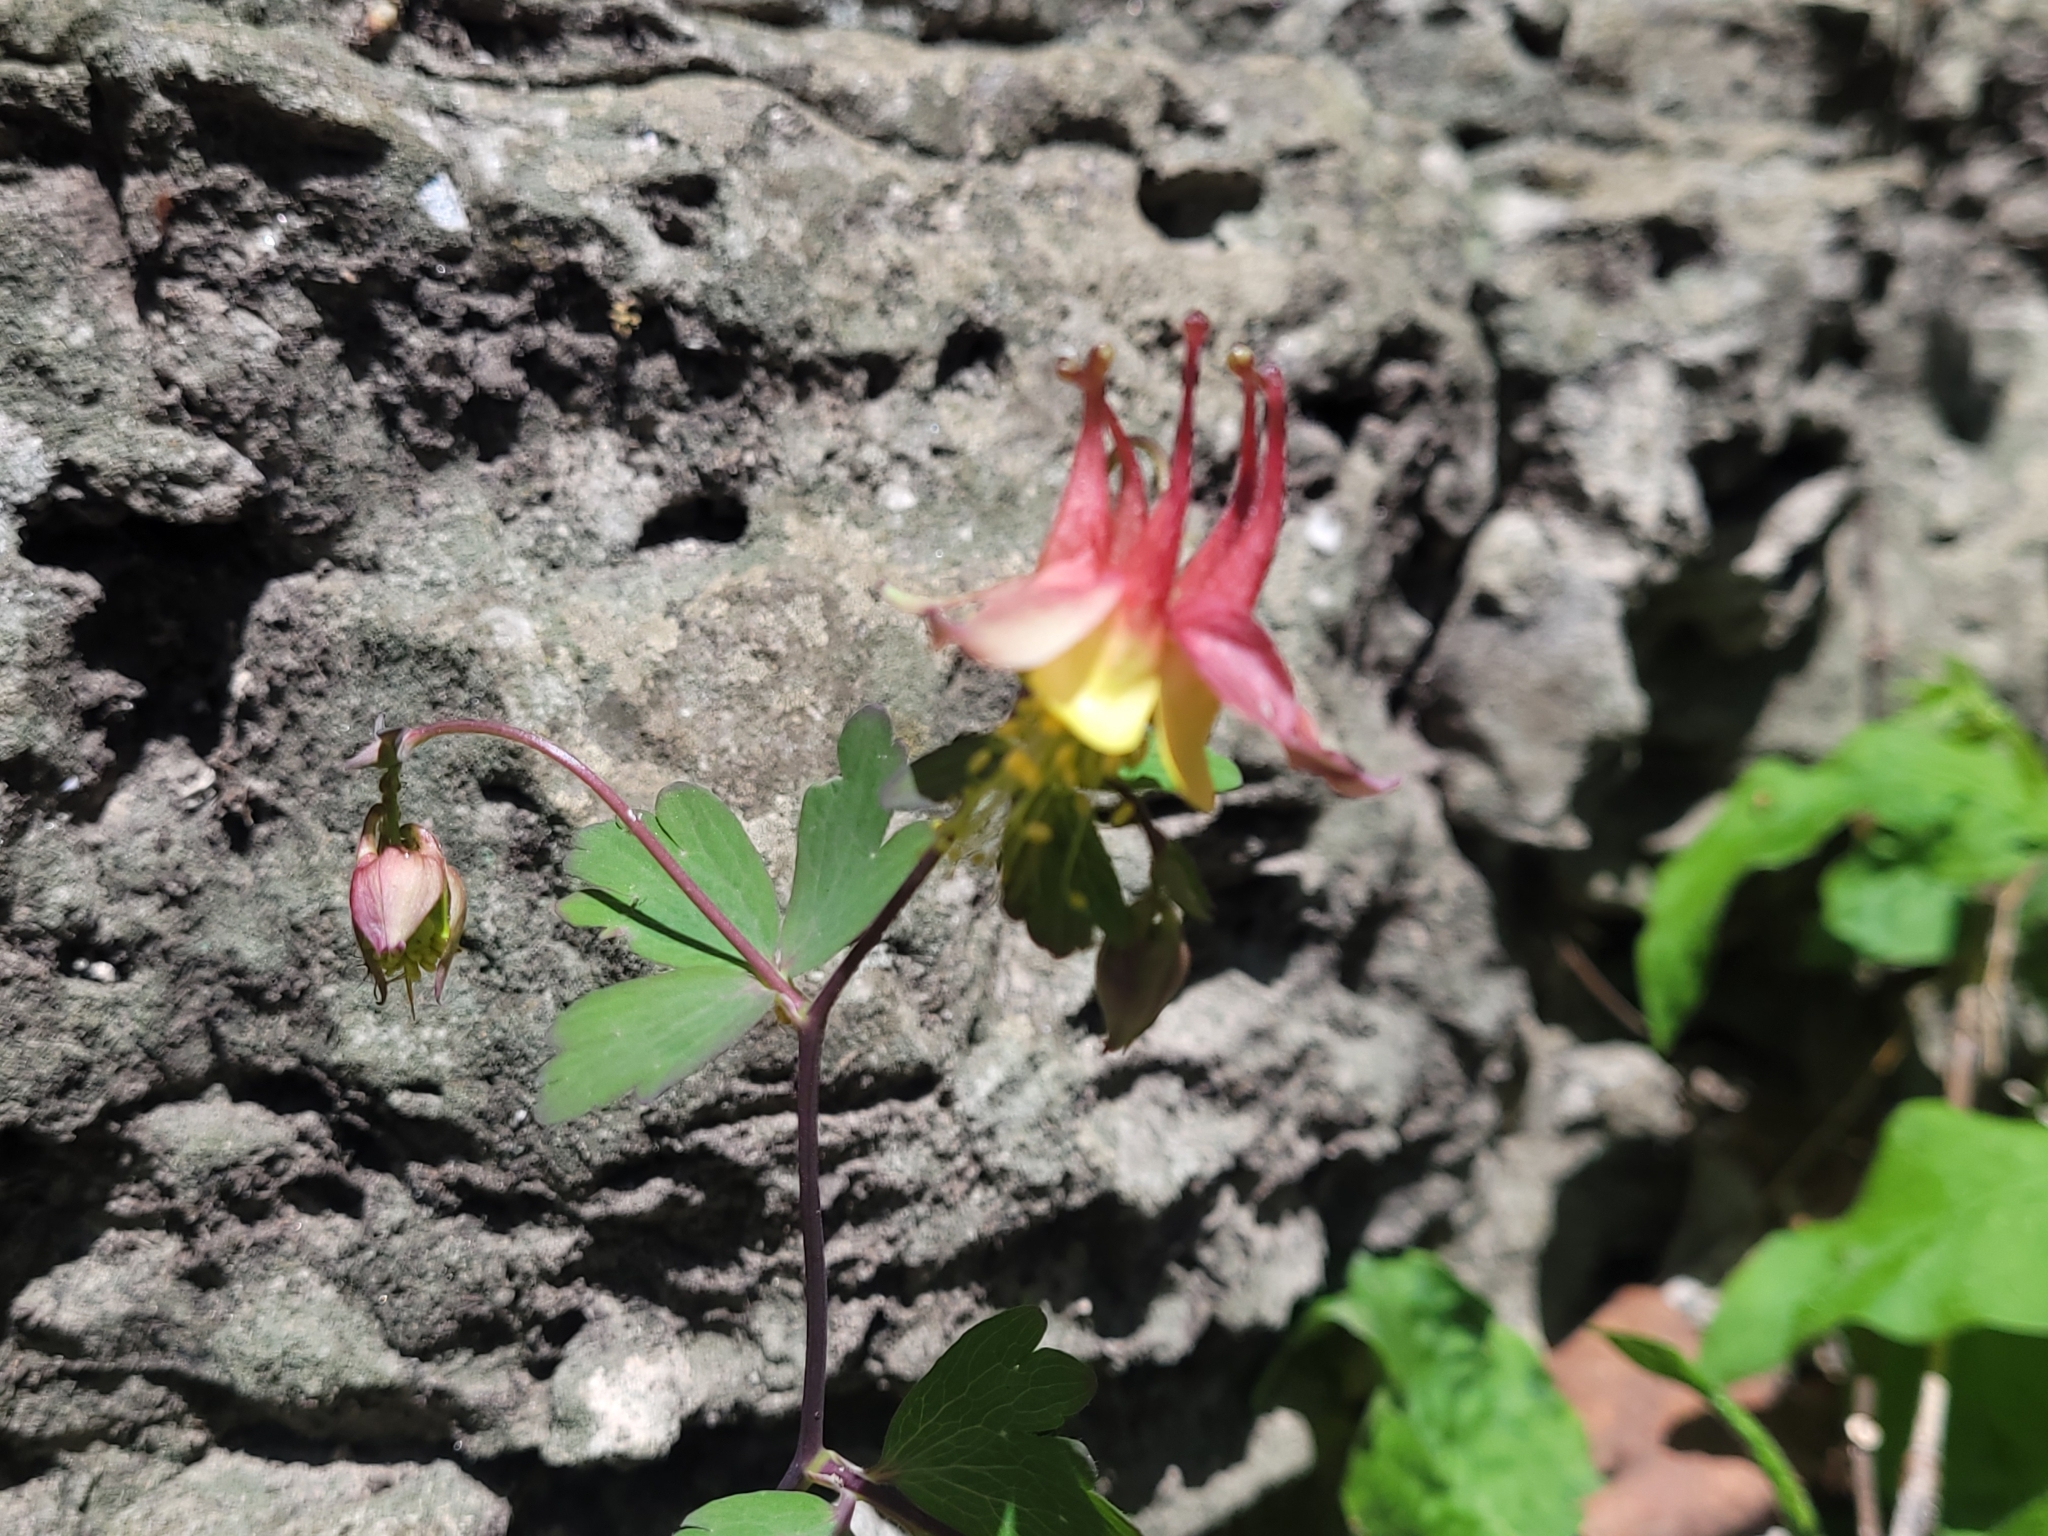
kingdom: Plantae
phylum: Tracheophyta
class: Magnoliopsida
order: Ranunculales
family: Ranunculaceae
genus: Aquilegia
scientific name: Aquilegia canadensis
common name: American columbine
